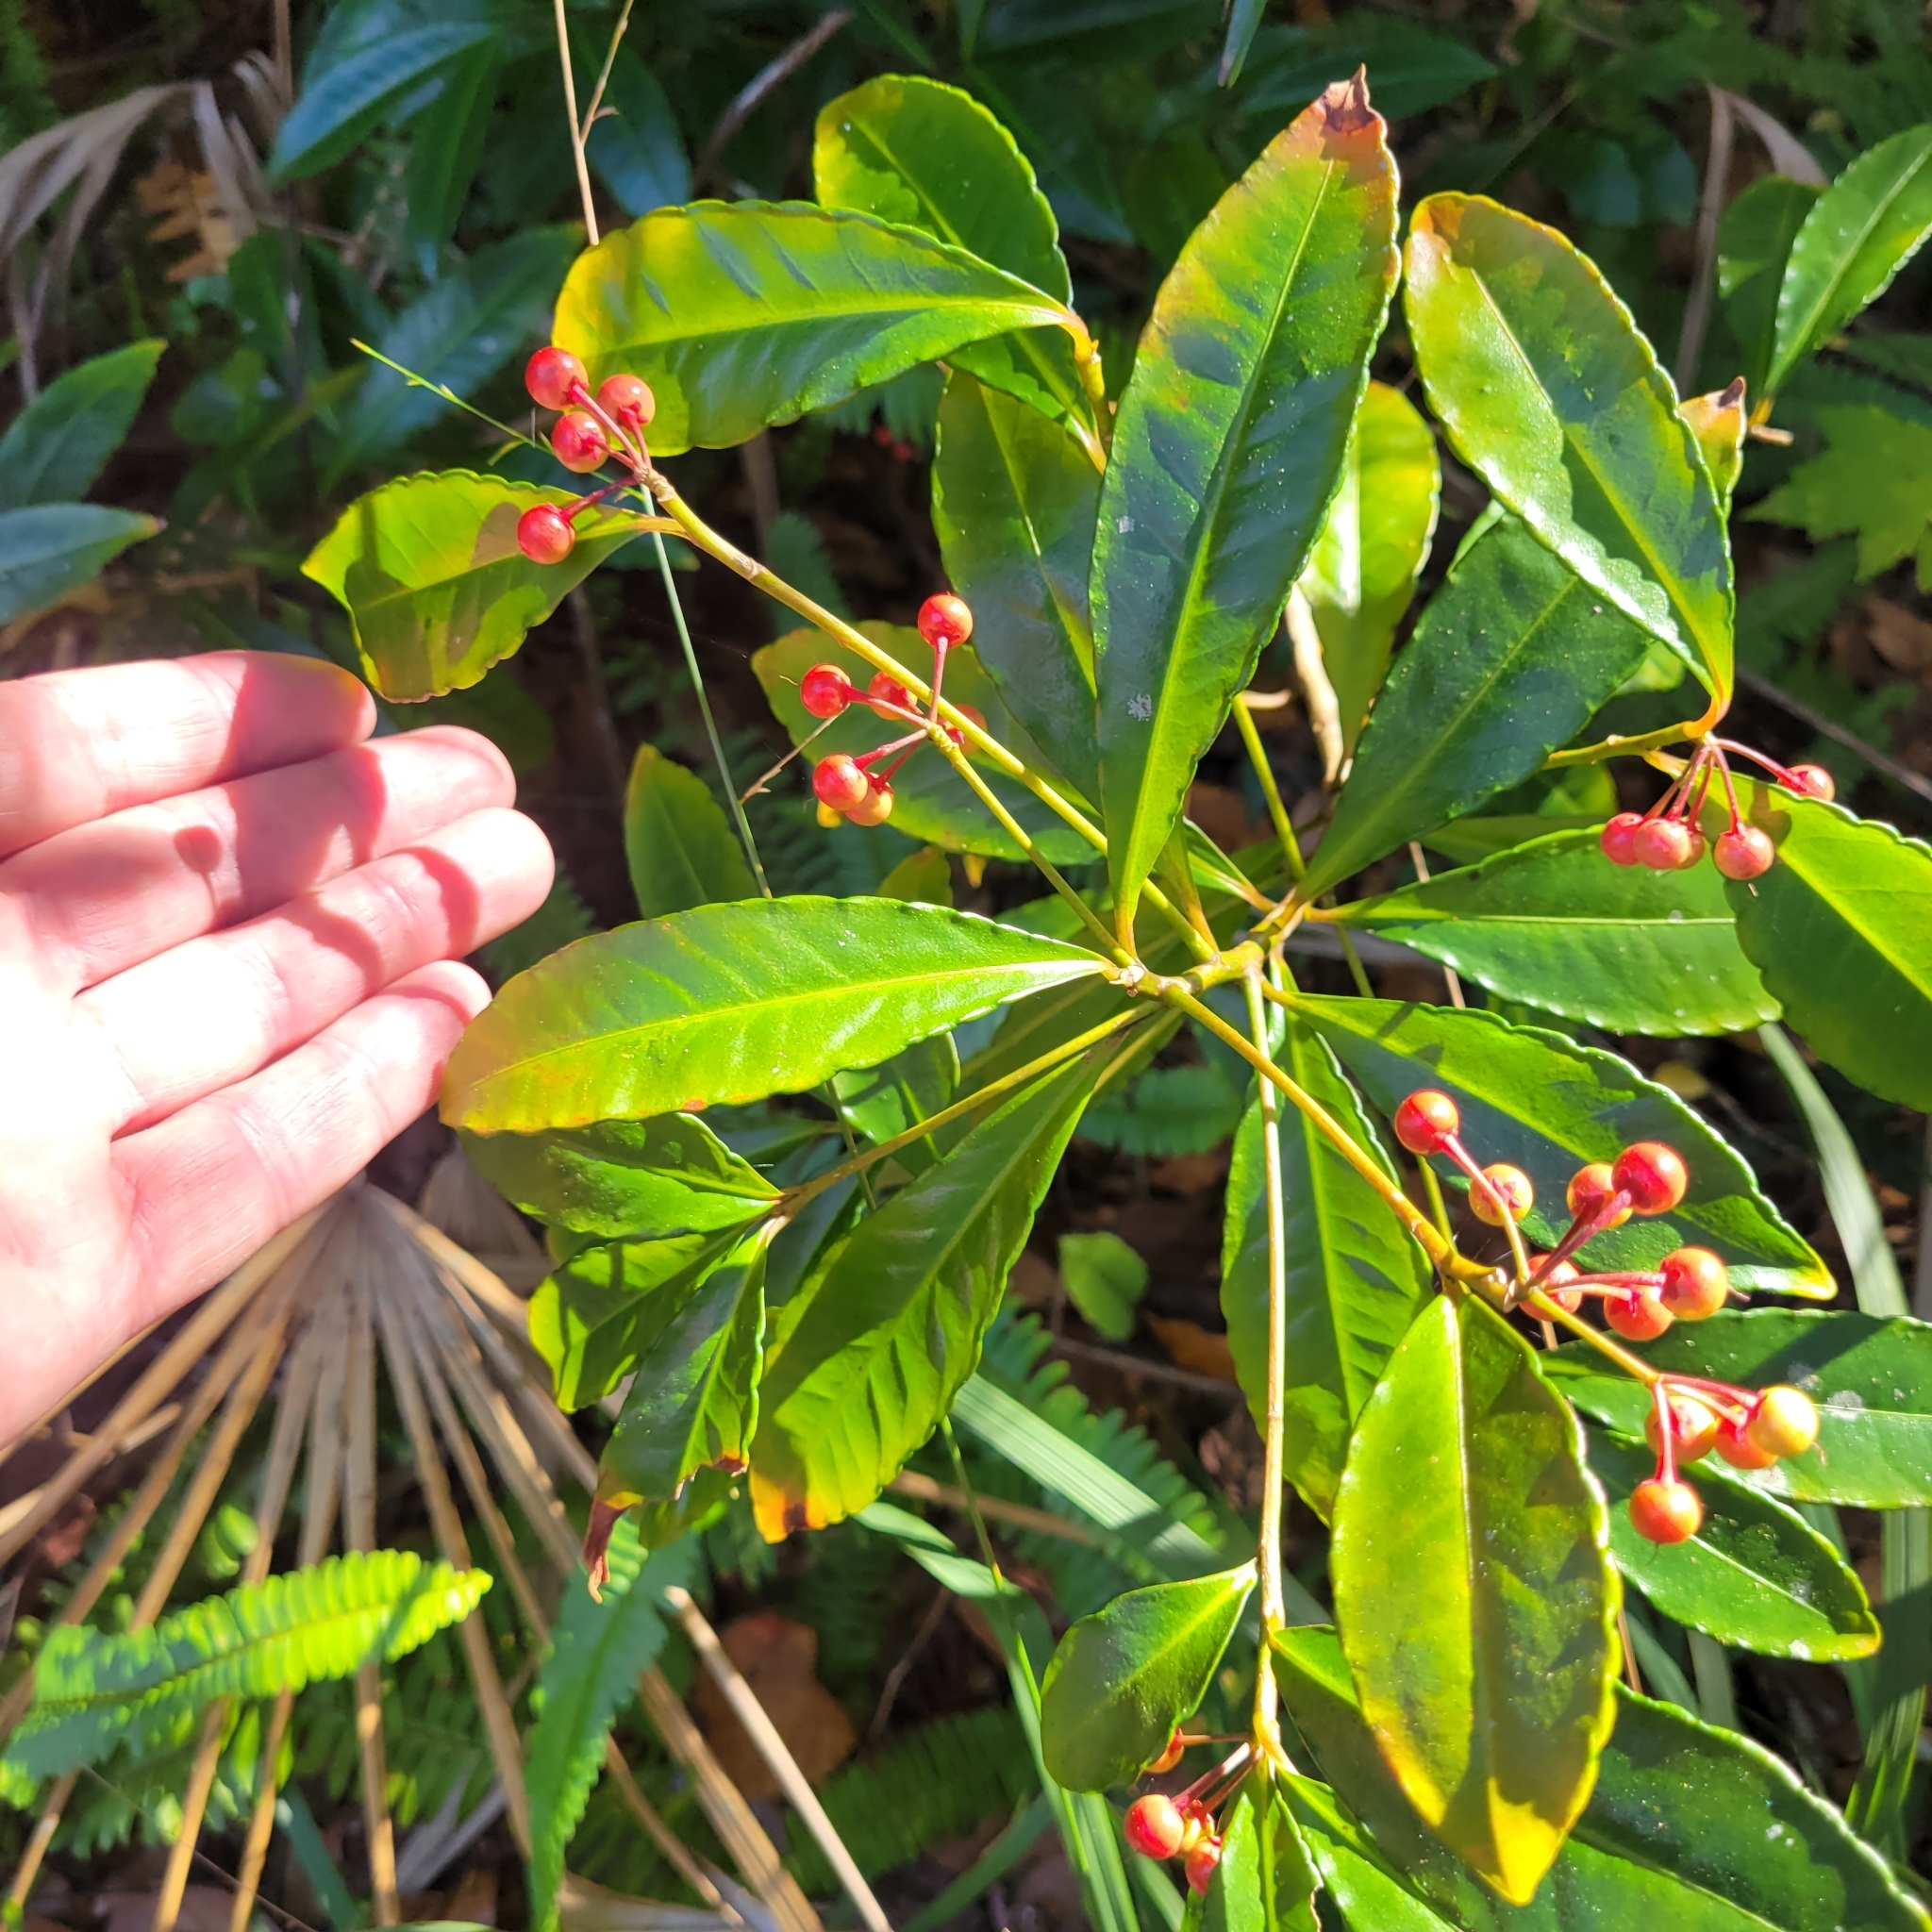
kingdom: Plantae
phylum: Tracheophyta
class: Magnoliopsida
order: Ericales
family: Primulaceae
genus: Ardisia
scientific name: Ardisia crenata
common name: Hen's eyes
